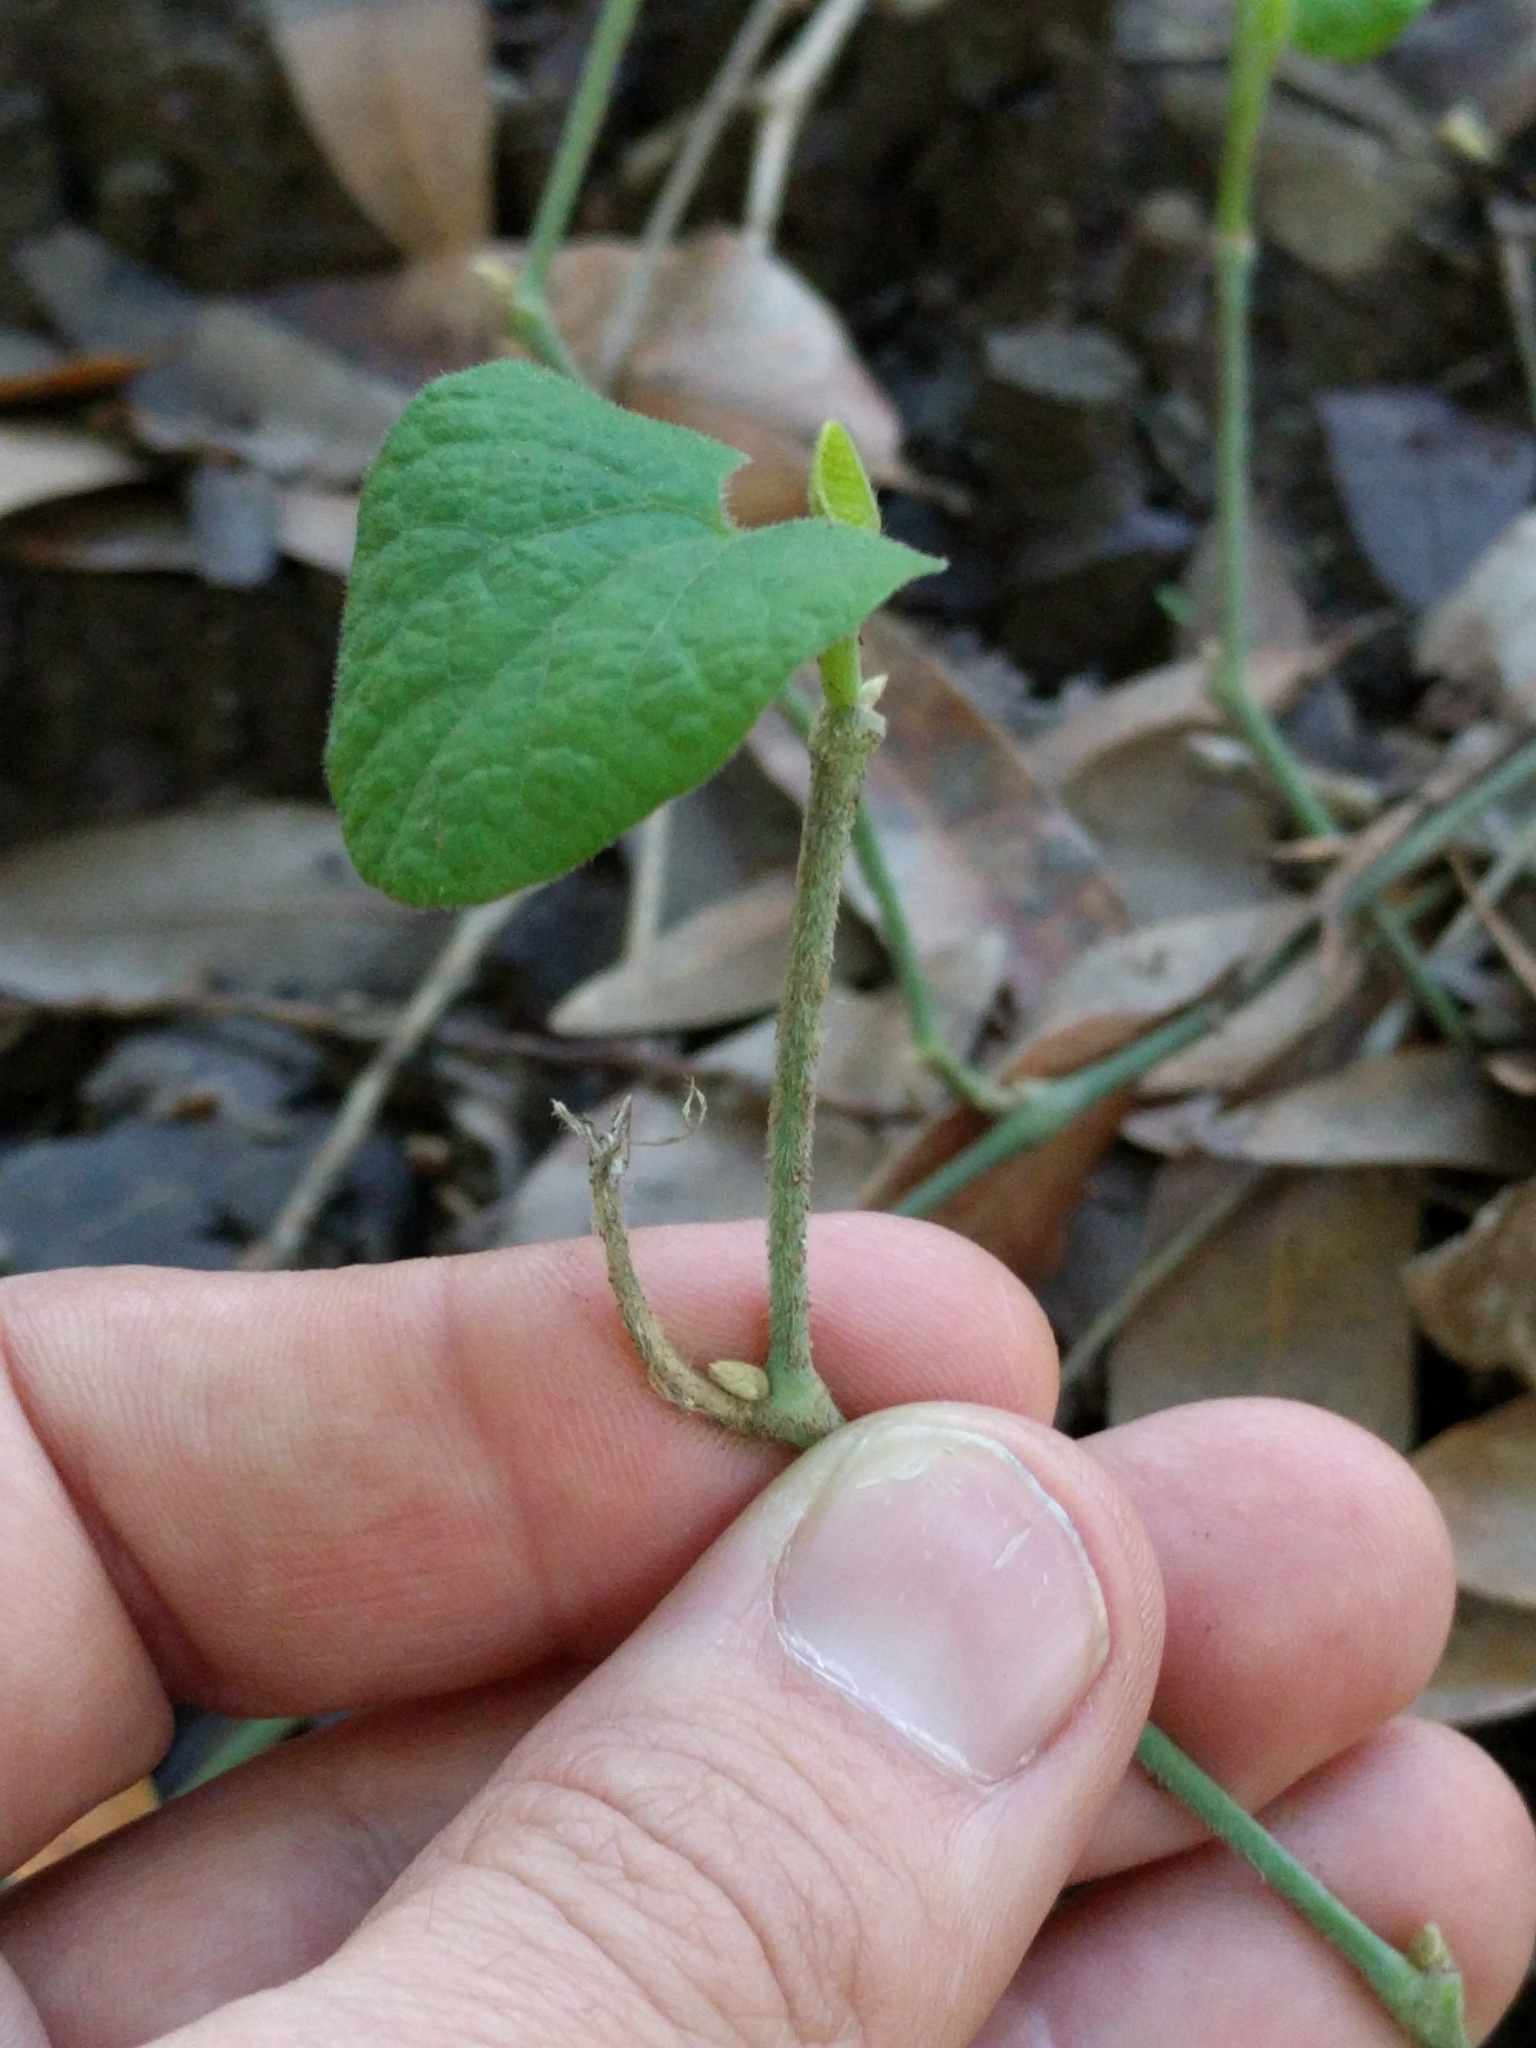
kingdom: Plantae
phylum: Tracheophyta
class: Magnoliopsida
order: Piperales
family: Aristolochiaceae
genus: Isotrema
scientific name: Isotrema californicum
